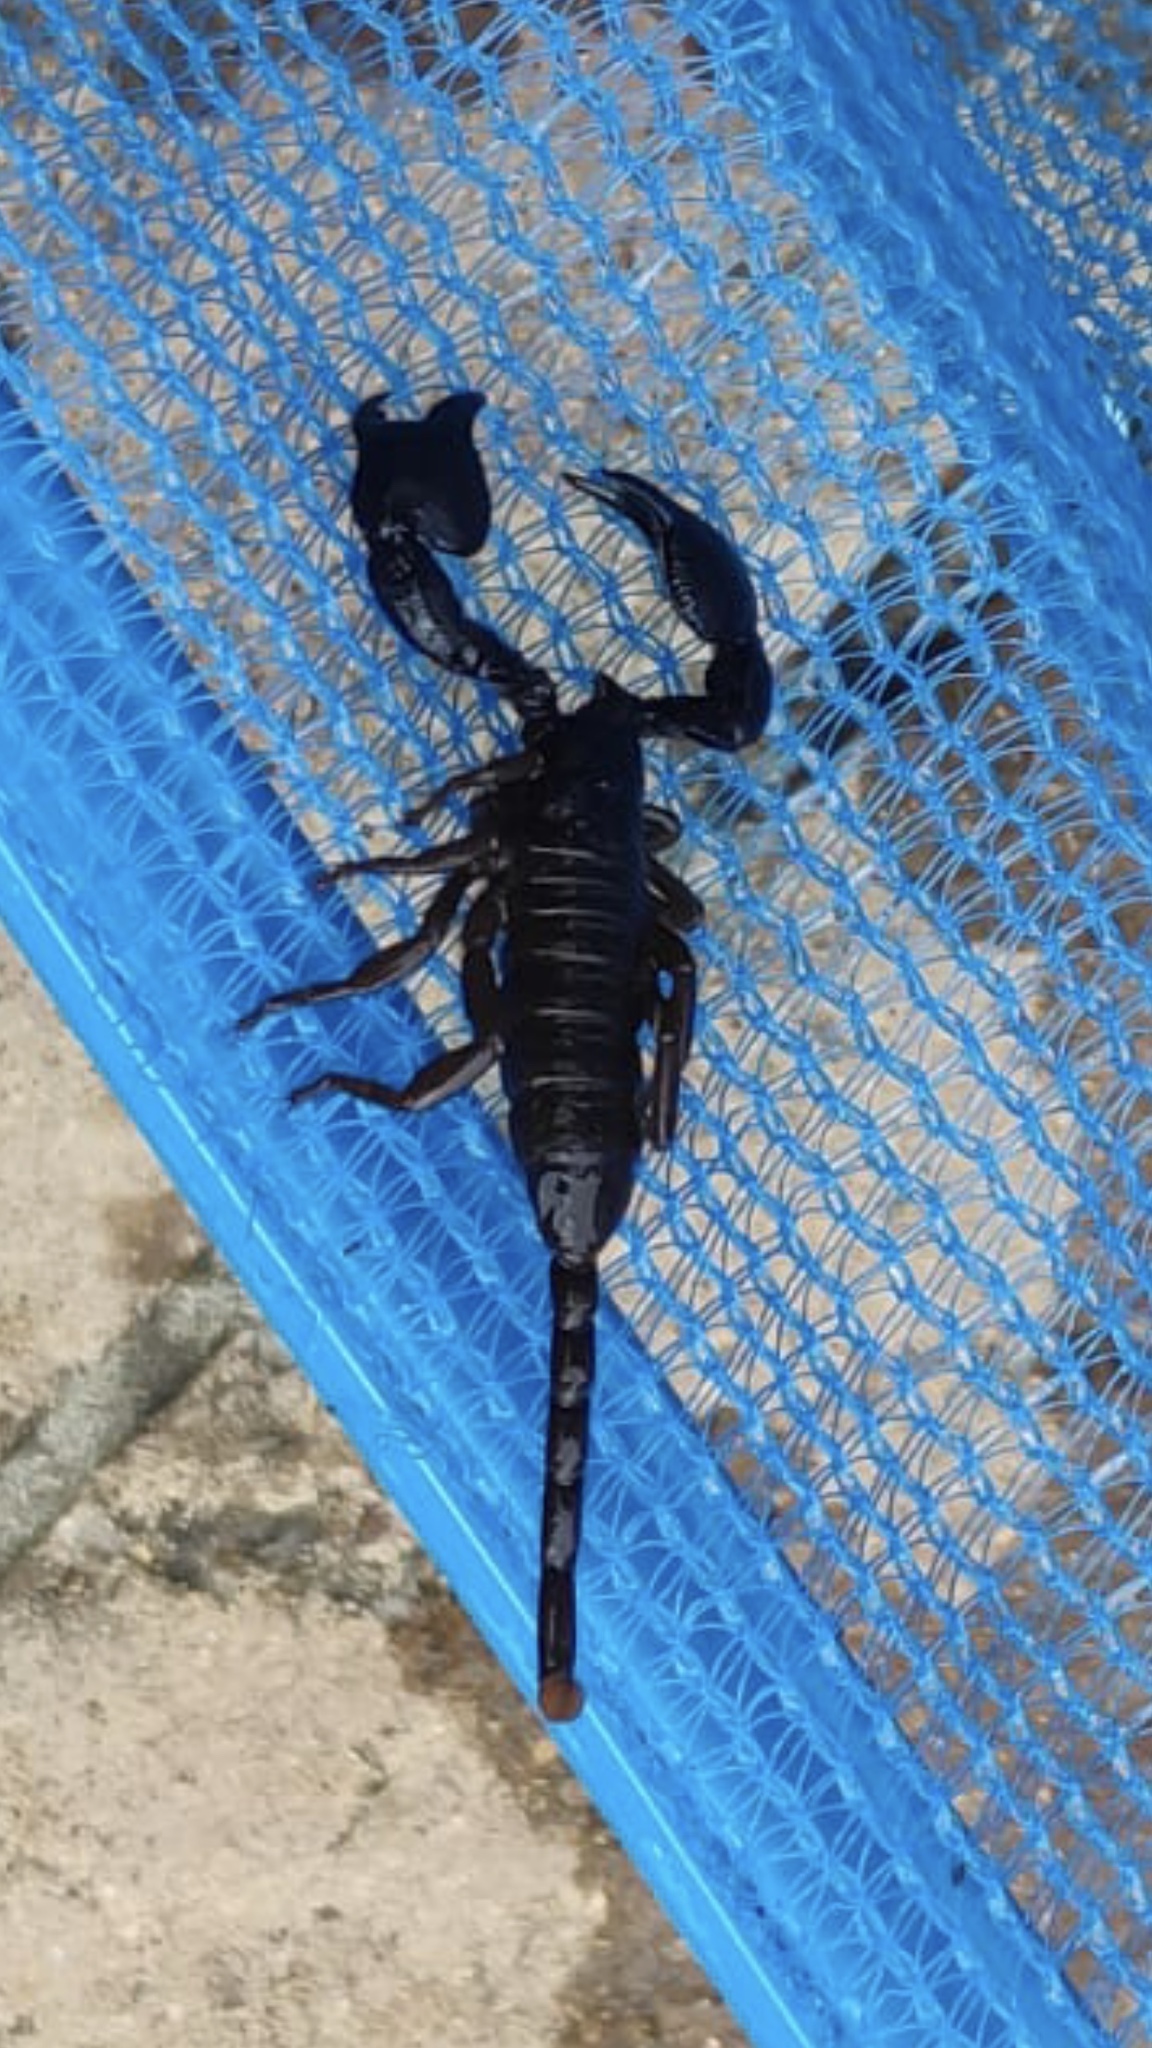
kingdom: Animalia
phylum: Arthropoda
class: Arachnida
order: Scorpiones
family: Hormuridae
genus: Cheloctonus
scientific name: Cheloctonus jonesii
